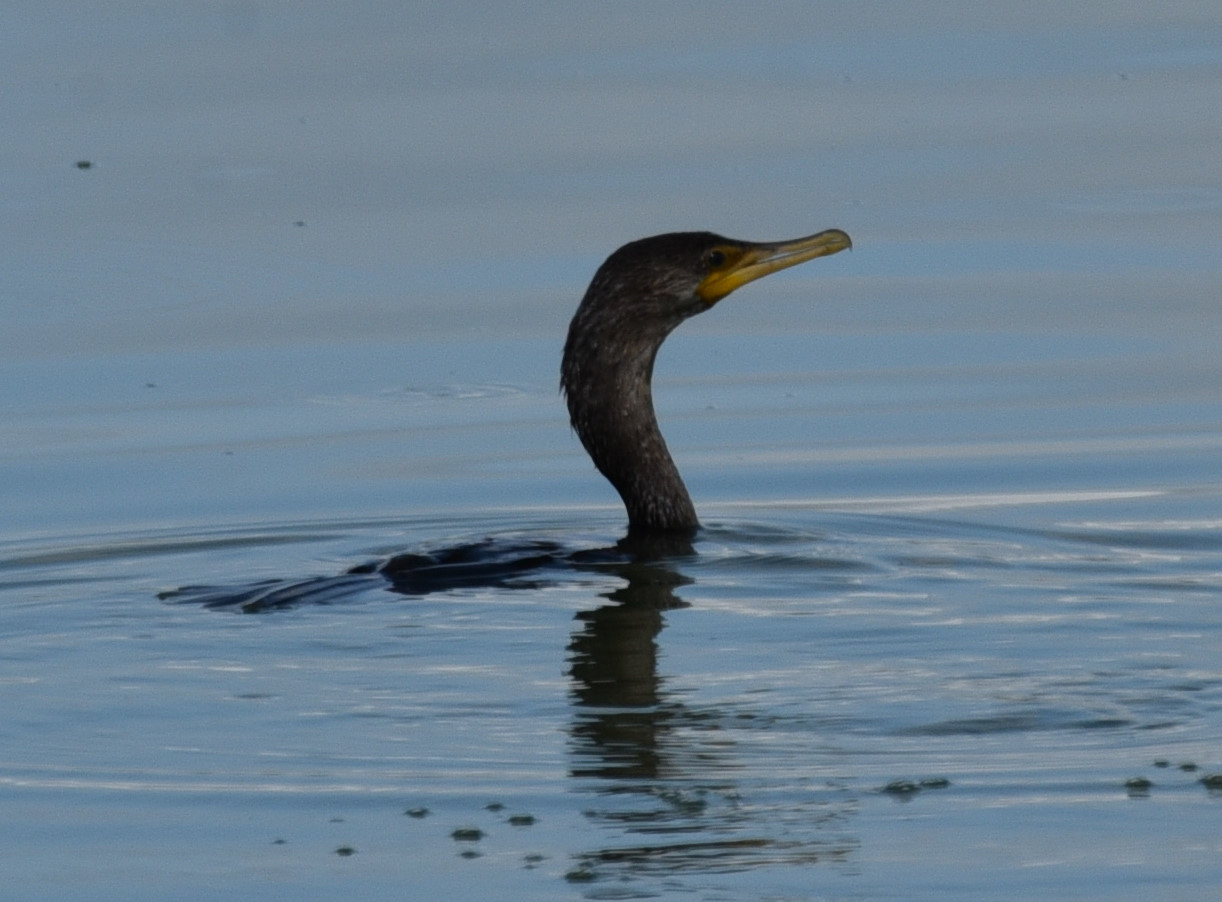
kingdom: Animalia
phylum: Chordata
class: Aves
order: Suliformes
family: Phalacrocoracidae
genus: Phalacrocorax
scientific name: Phalacrocorax brasilianus
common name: Neotropic cormorant
